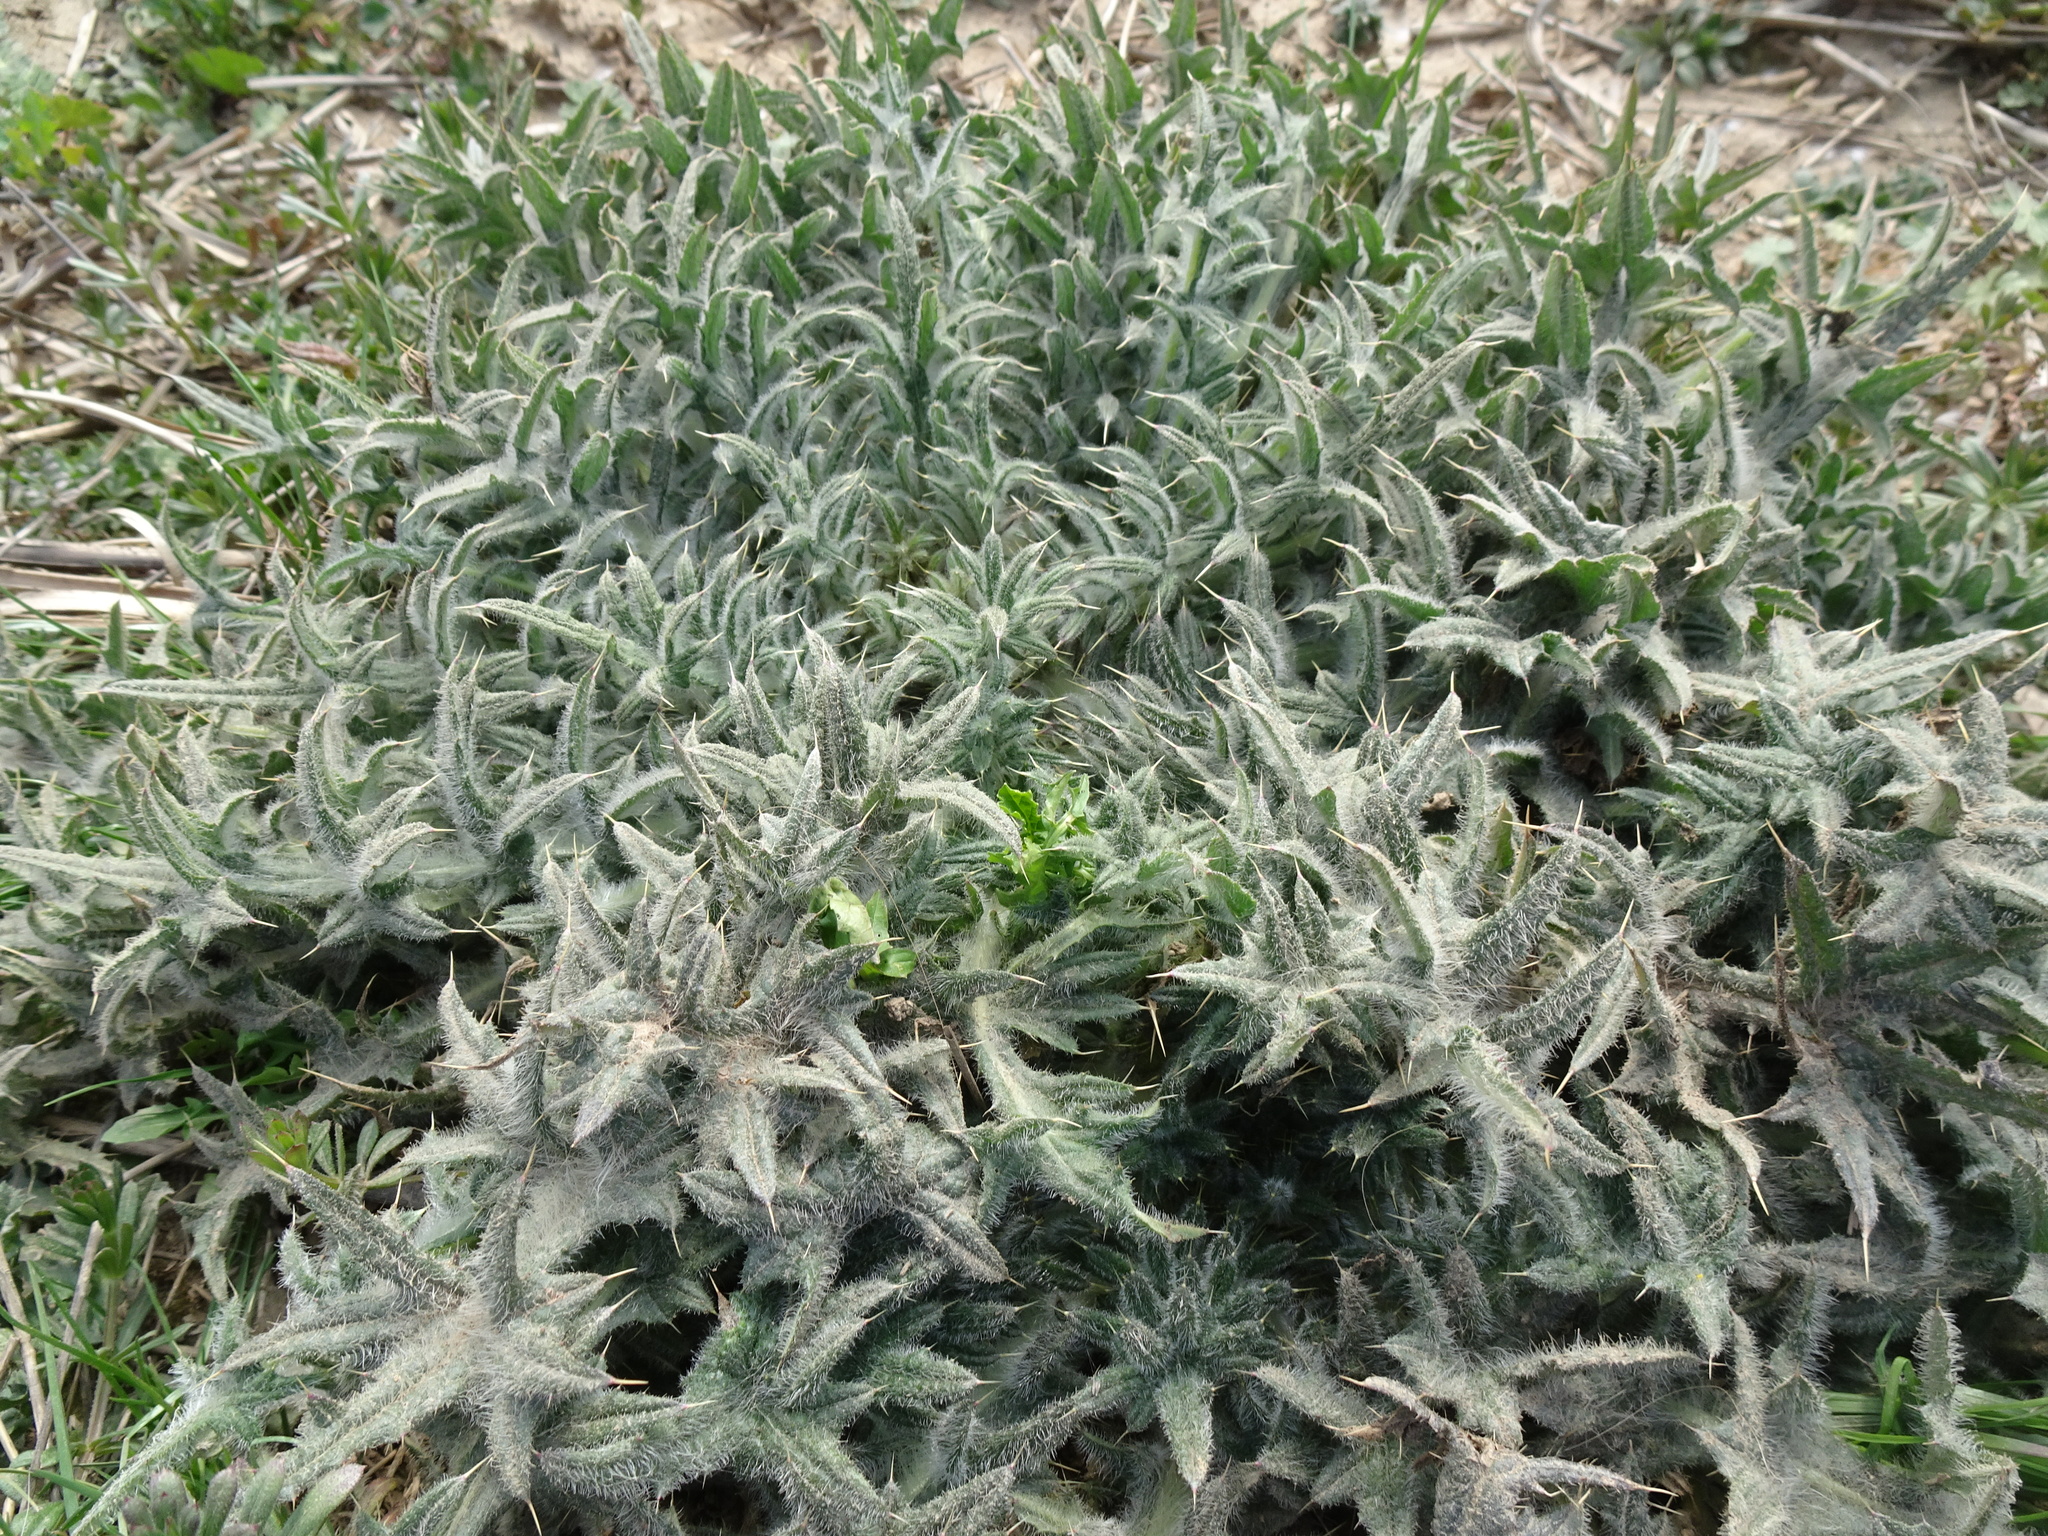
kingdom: Plantae
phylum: Tracheophyta
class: Magnoliopsida
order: Asterales
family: Asteraceae
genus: Cirsium
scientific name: Cirsium vulgare
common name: Bull thistle
